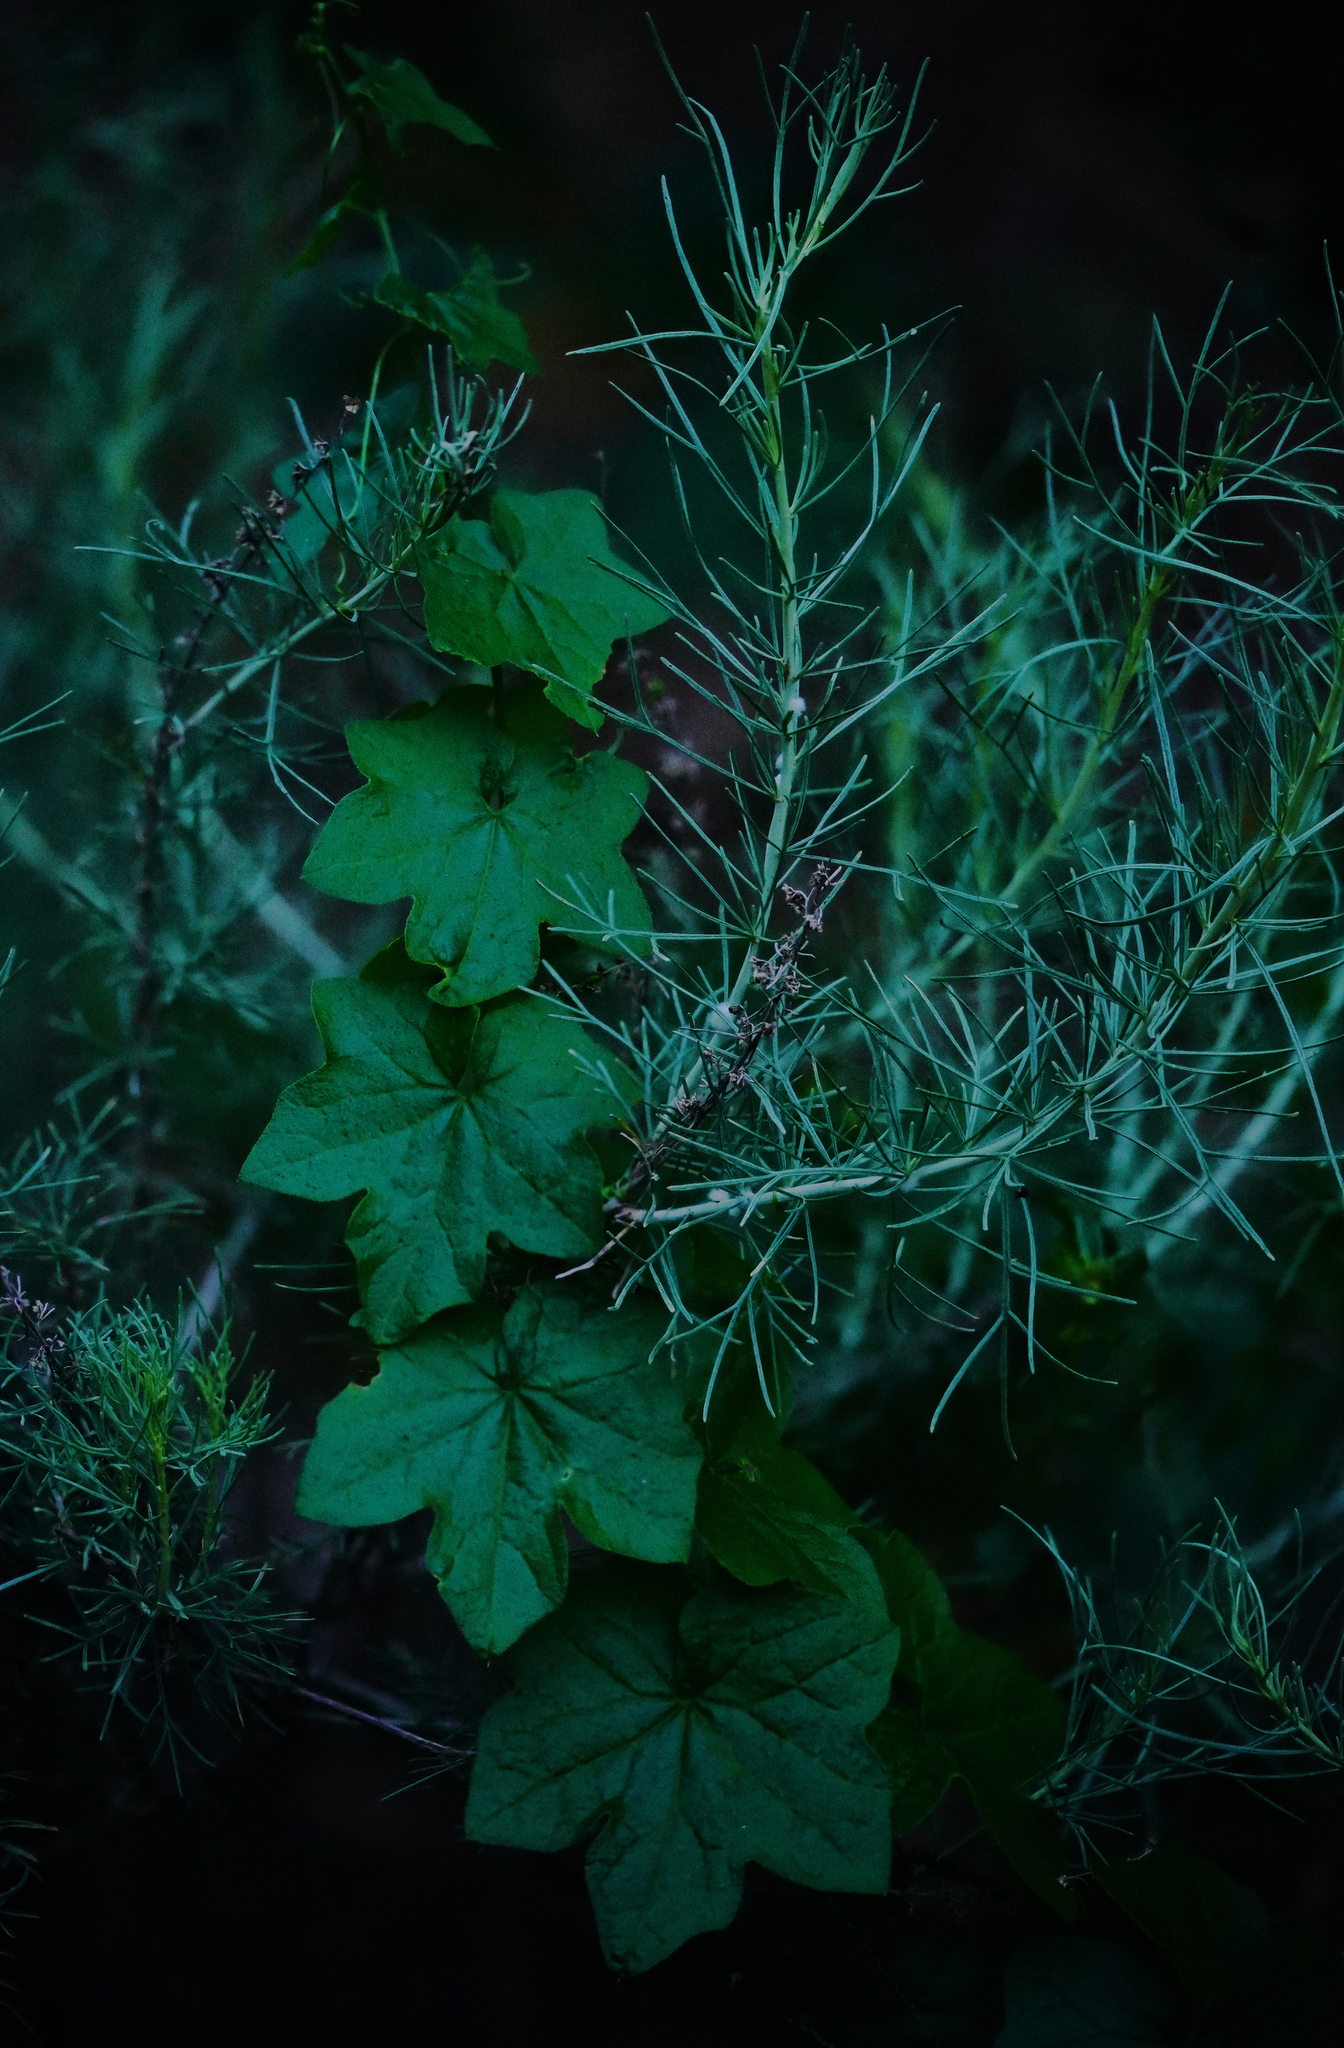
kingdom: Plantae
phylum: Tracheophyta
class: Magnoliopsida
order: Cucurbitales
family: Cucurbitaceae
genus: Marah
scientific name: Marah fabacea
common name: California manroot
